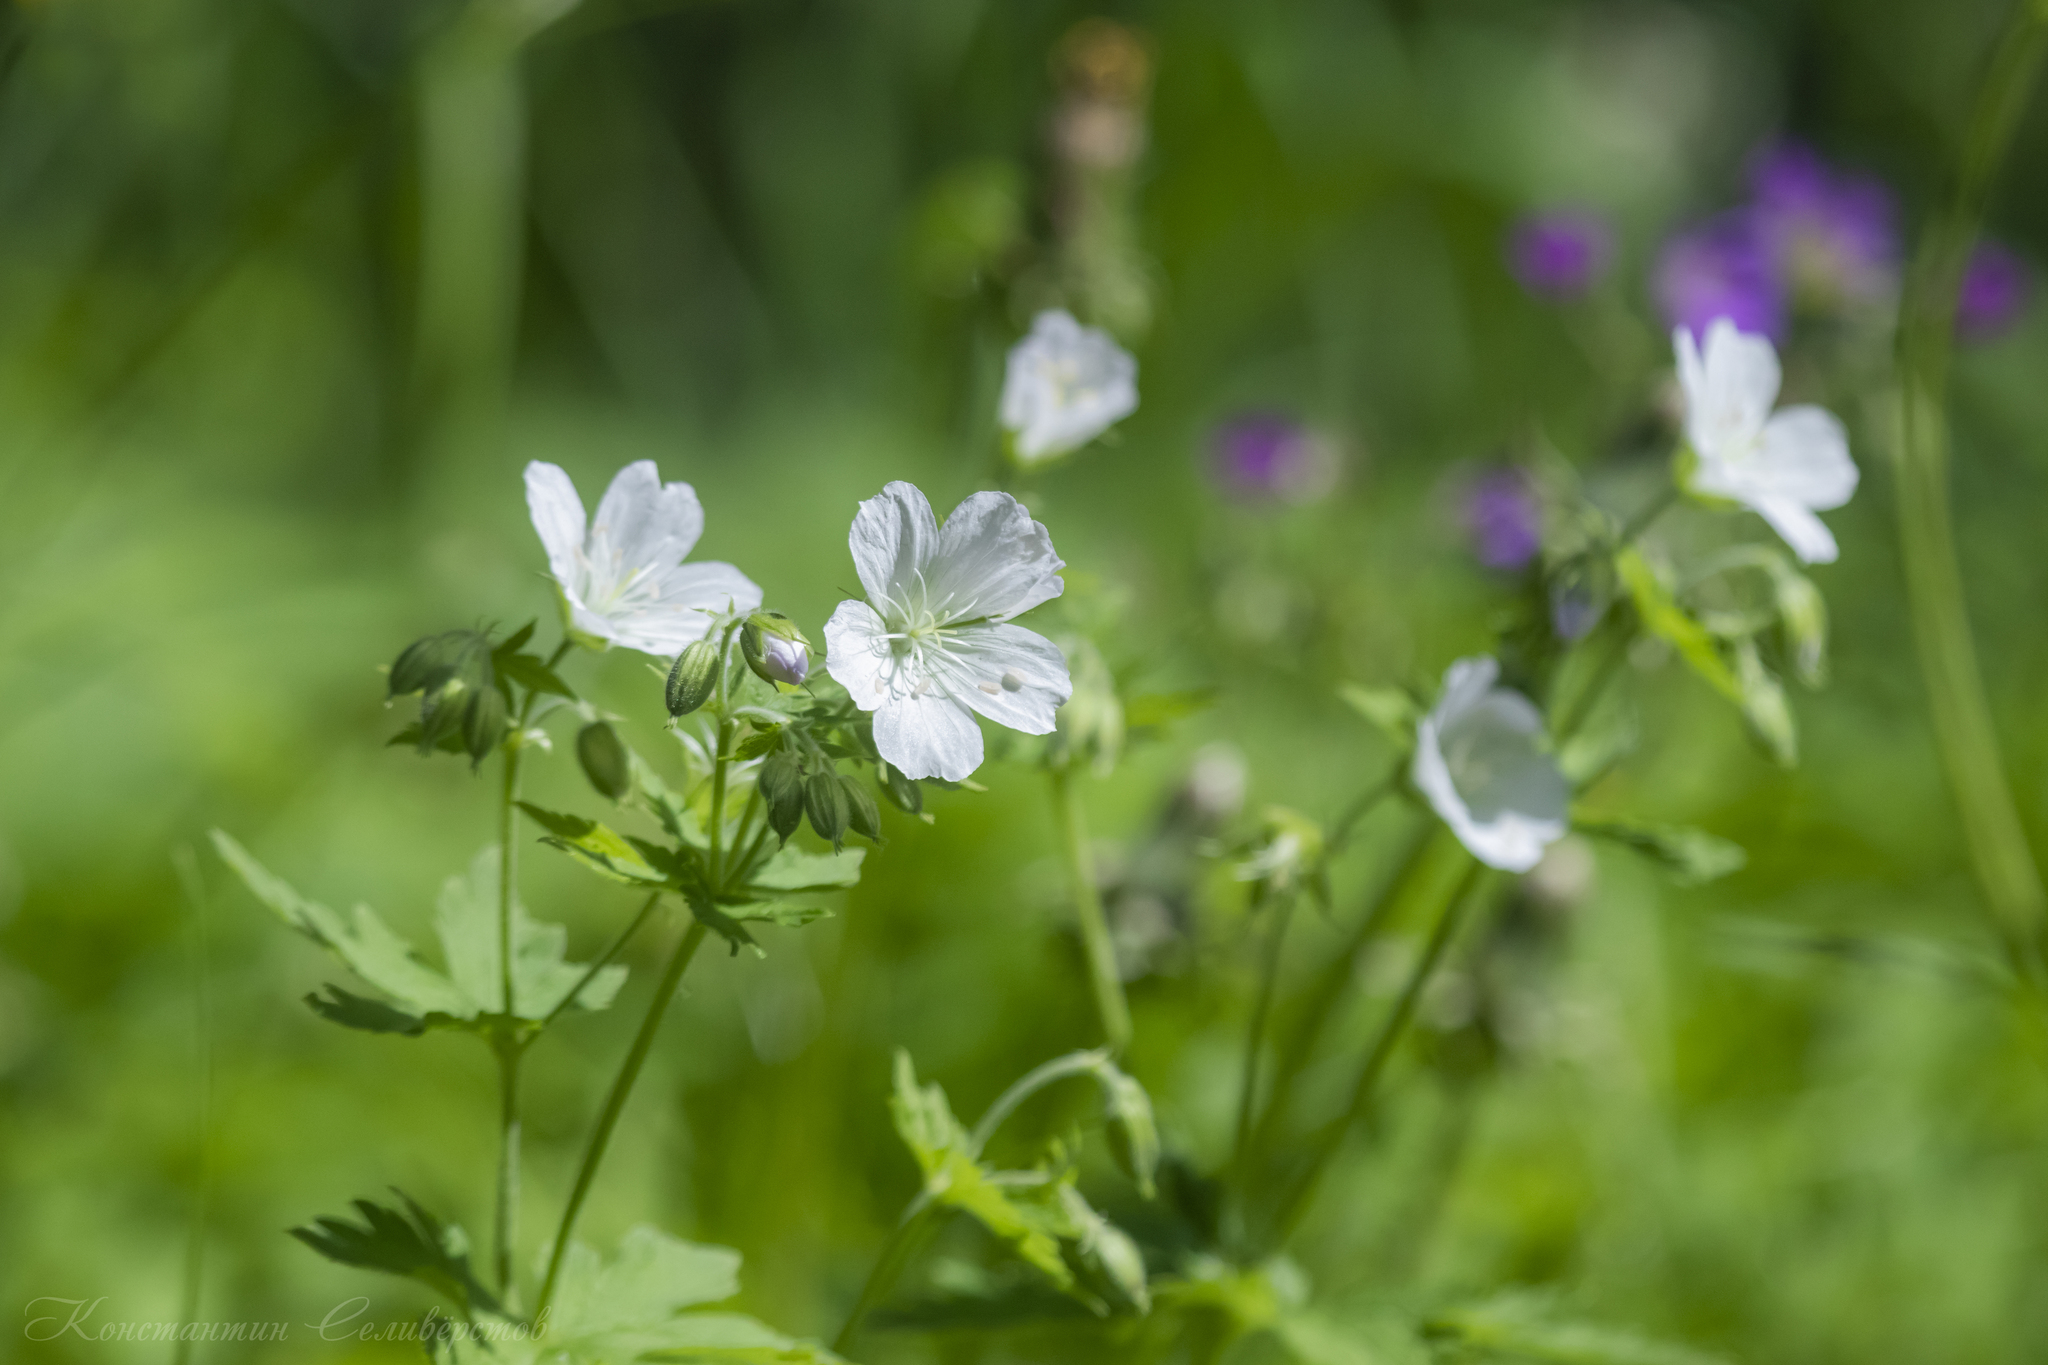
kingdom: Plantae
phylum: Tracheophyta
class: Magnoliopsida
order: Geraniales
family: Geraniaceae
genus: Geranium
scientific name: Geranium sylvaticum
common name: Wood crane's-bill
